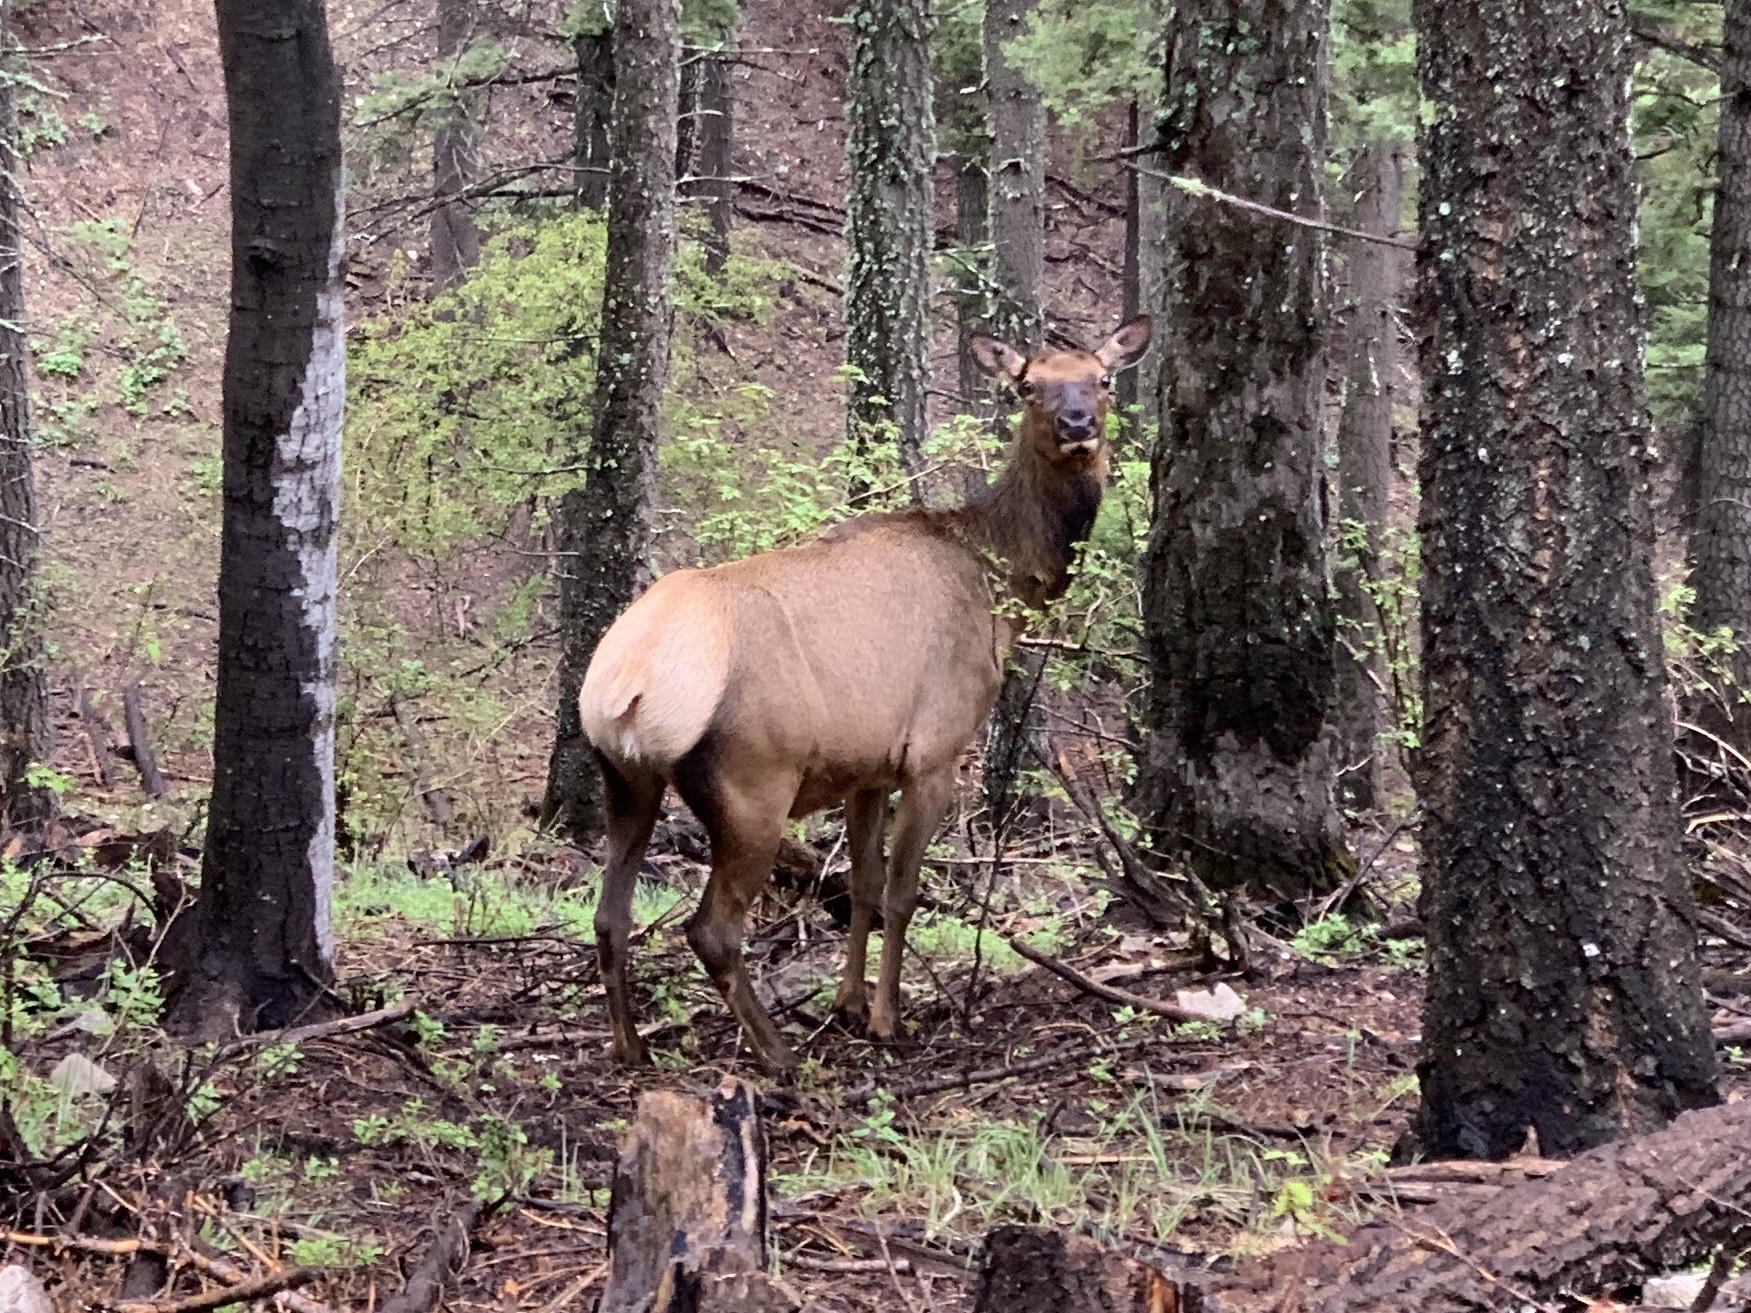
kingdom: Animalia
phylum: Chordata
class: Mammalia
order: Artiodactyla
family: Cervidae
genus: Cervus
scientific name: Cervus elaphus
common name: Red deer
